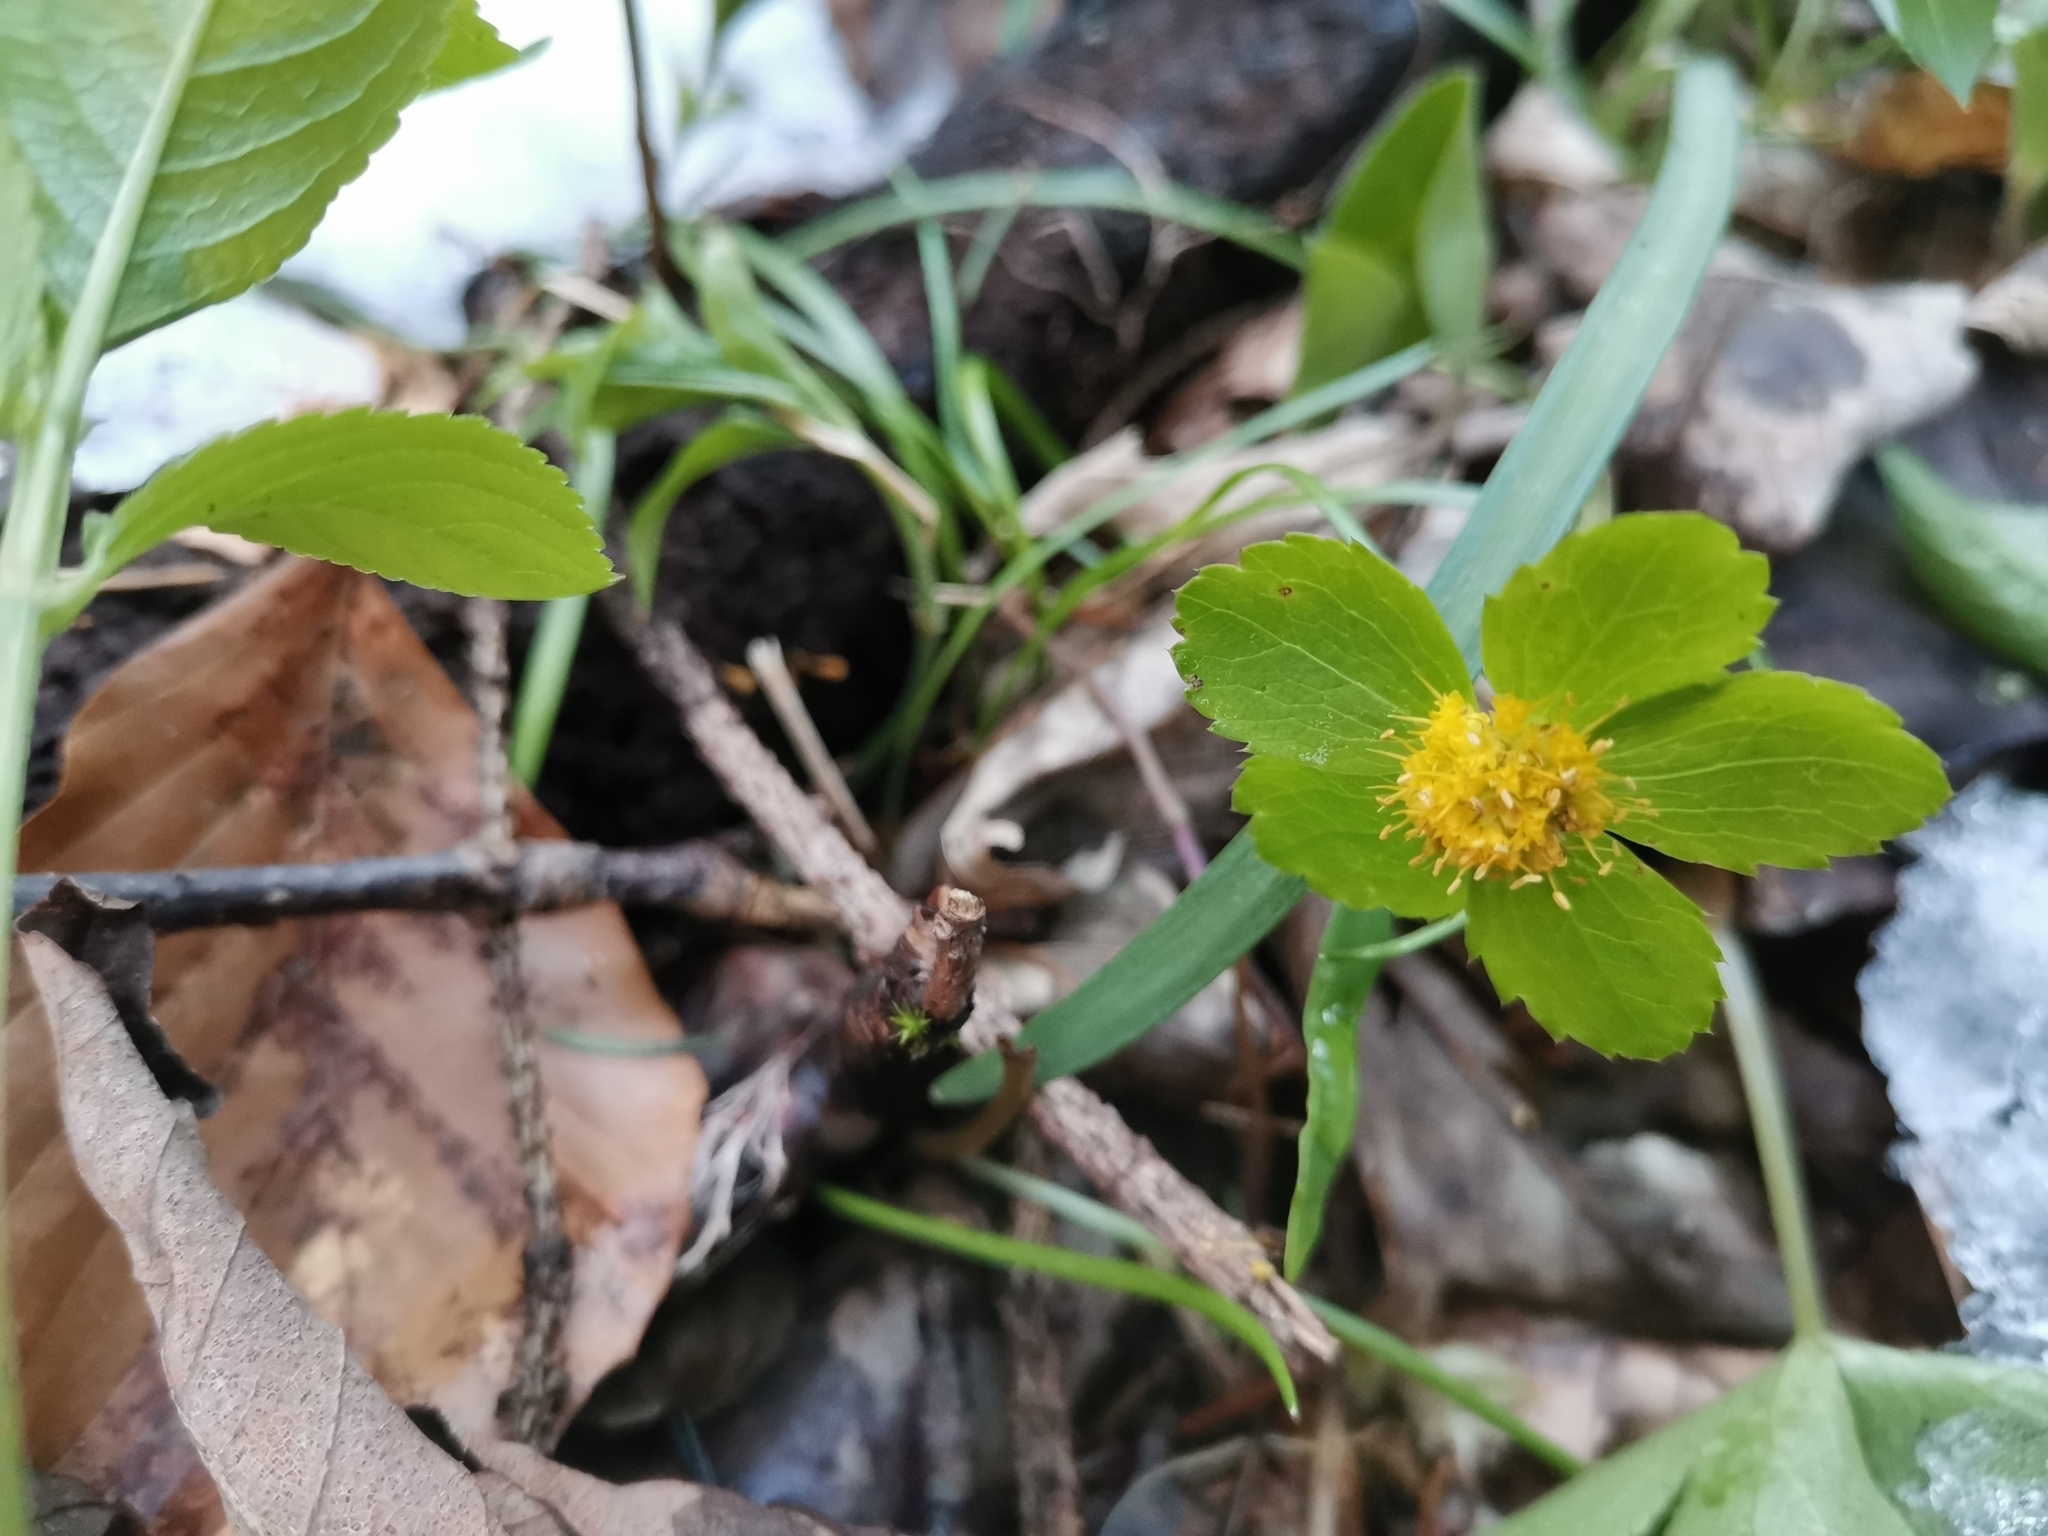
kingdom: Plantae
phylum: Tracheophyta
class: Magnoliopsida
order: Apiales
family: Apiaceae
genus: Sanicula
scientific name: Sanicula epipactis
